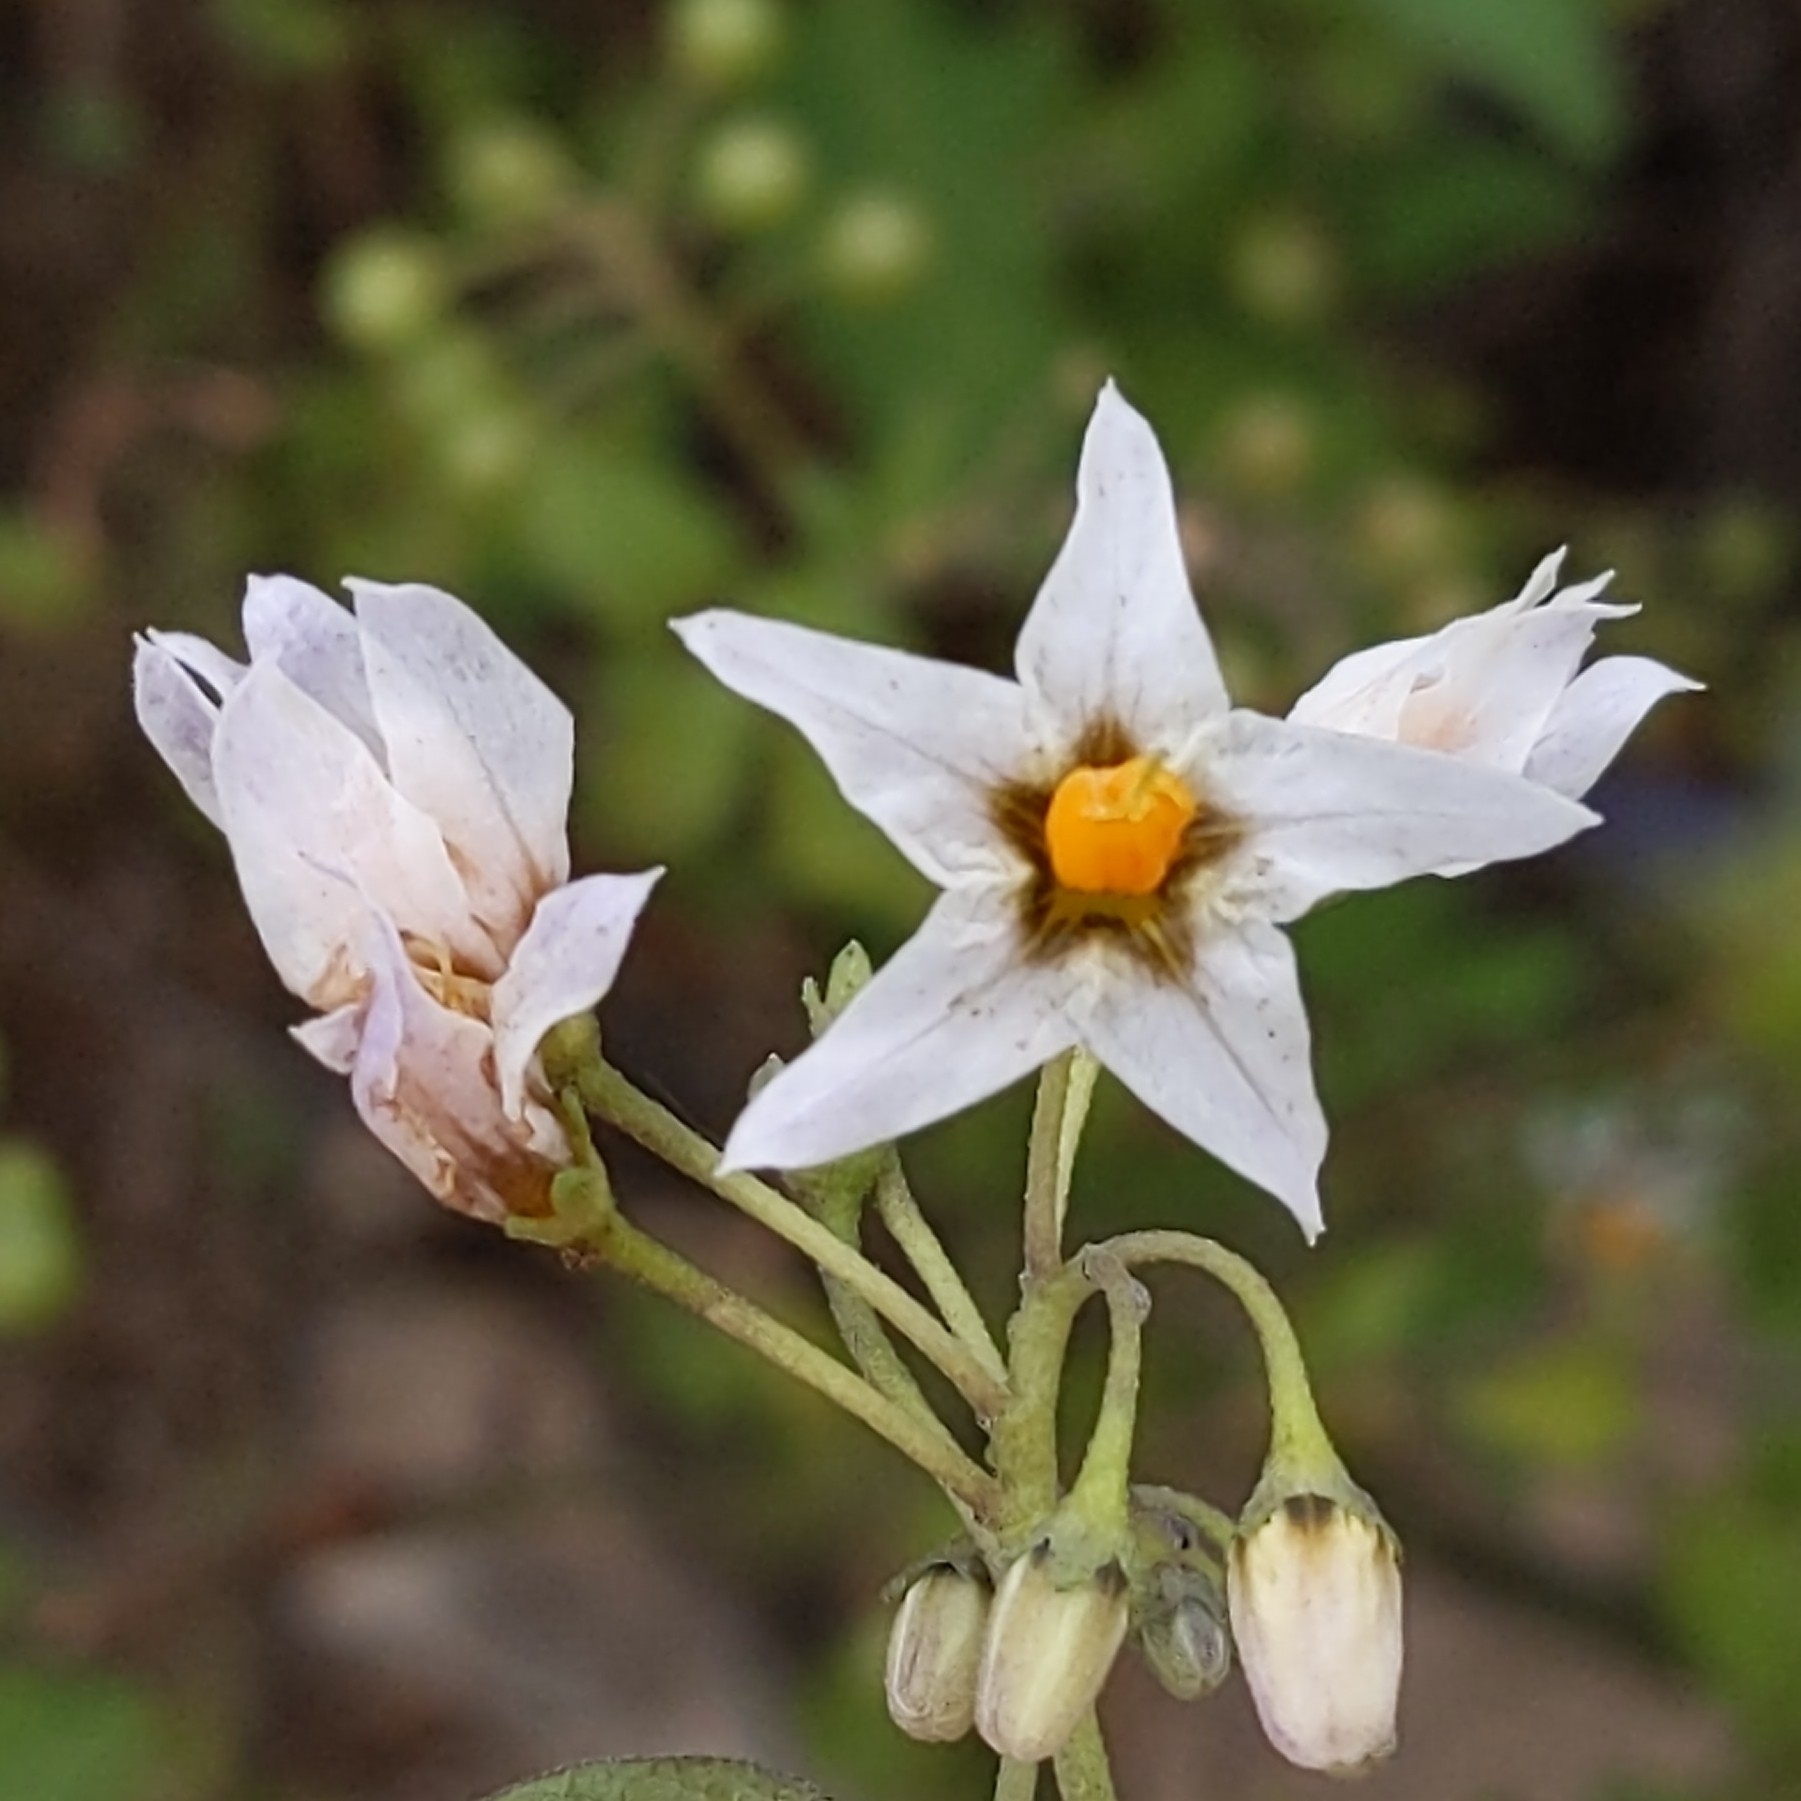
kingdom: Plantae
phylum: Tracheophyta
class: Magnoliopsida
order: Solanales
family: Solanaceae
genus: Solanum
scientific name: Solanum douglasii
